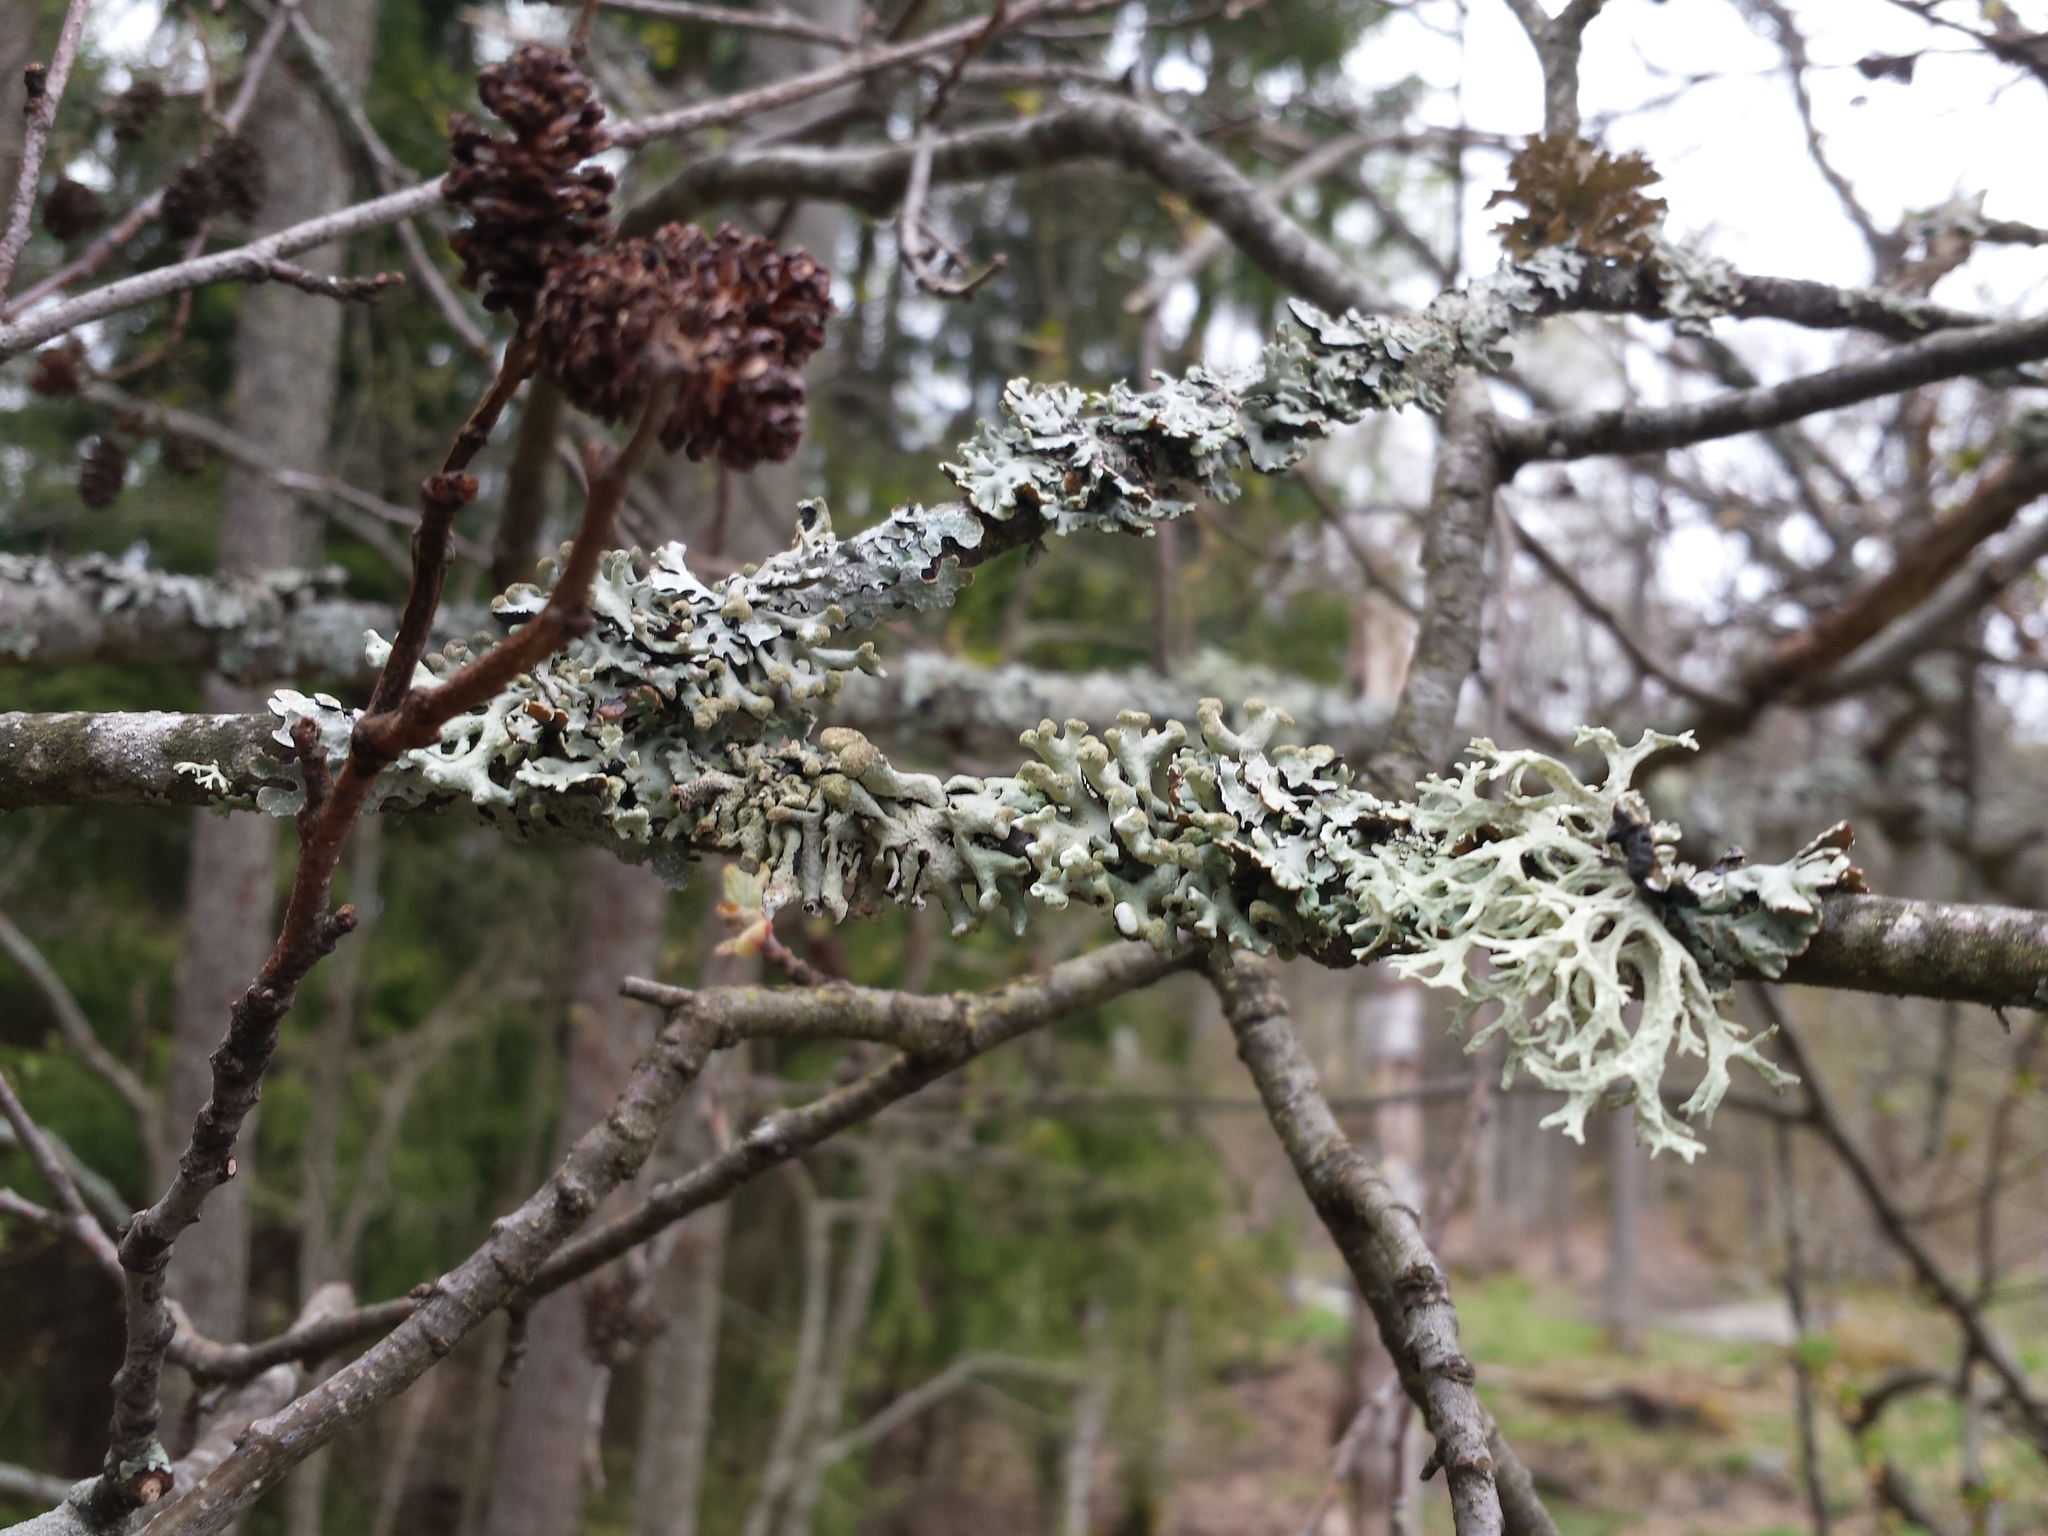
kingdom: Fungi
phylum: Ascomycota
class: Lecanoromycetes
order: Lecanorales
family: Parmeliaceae
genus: Hypogymnia
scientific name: Hypogymnia tubulosa
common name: Powder-headed tube lichen
